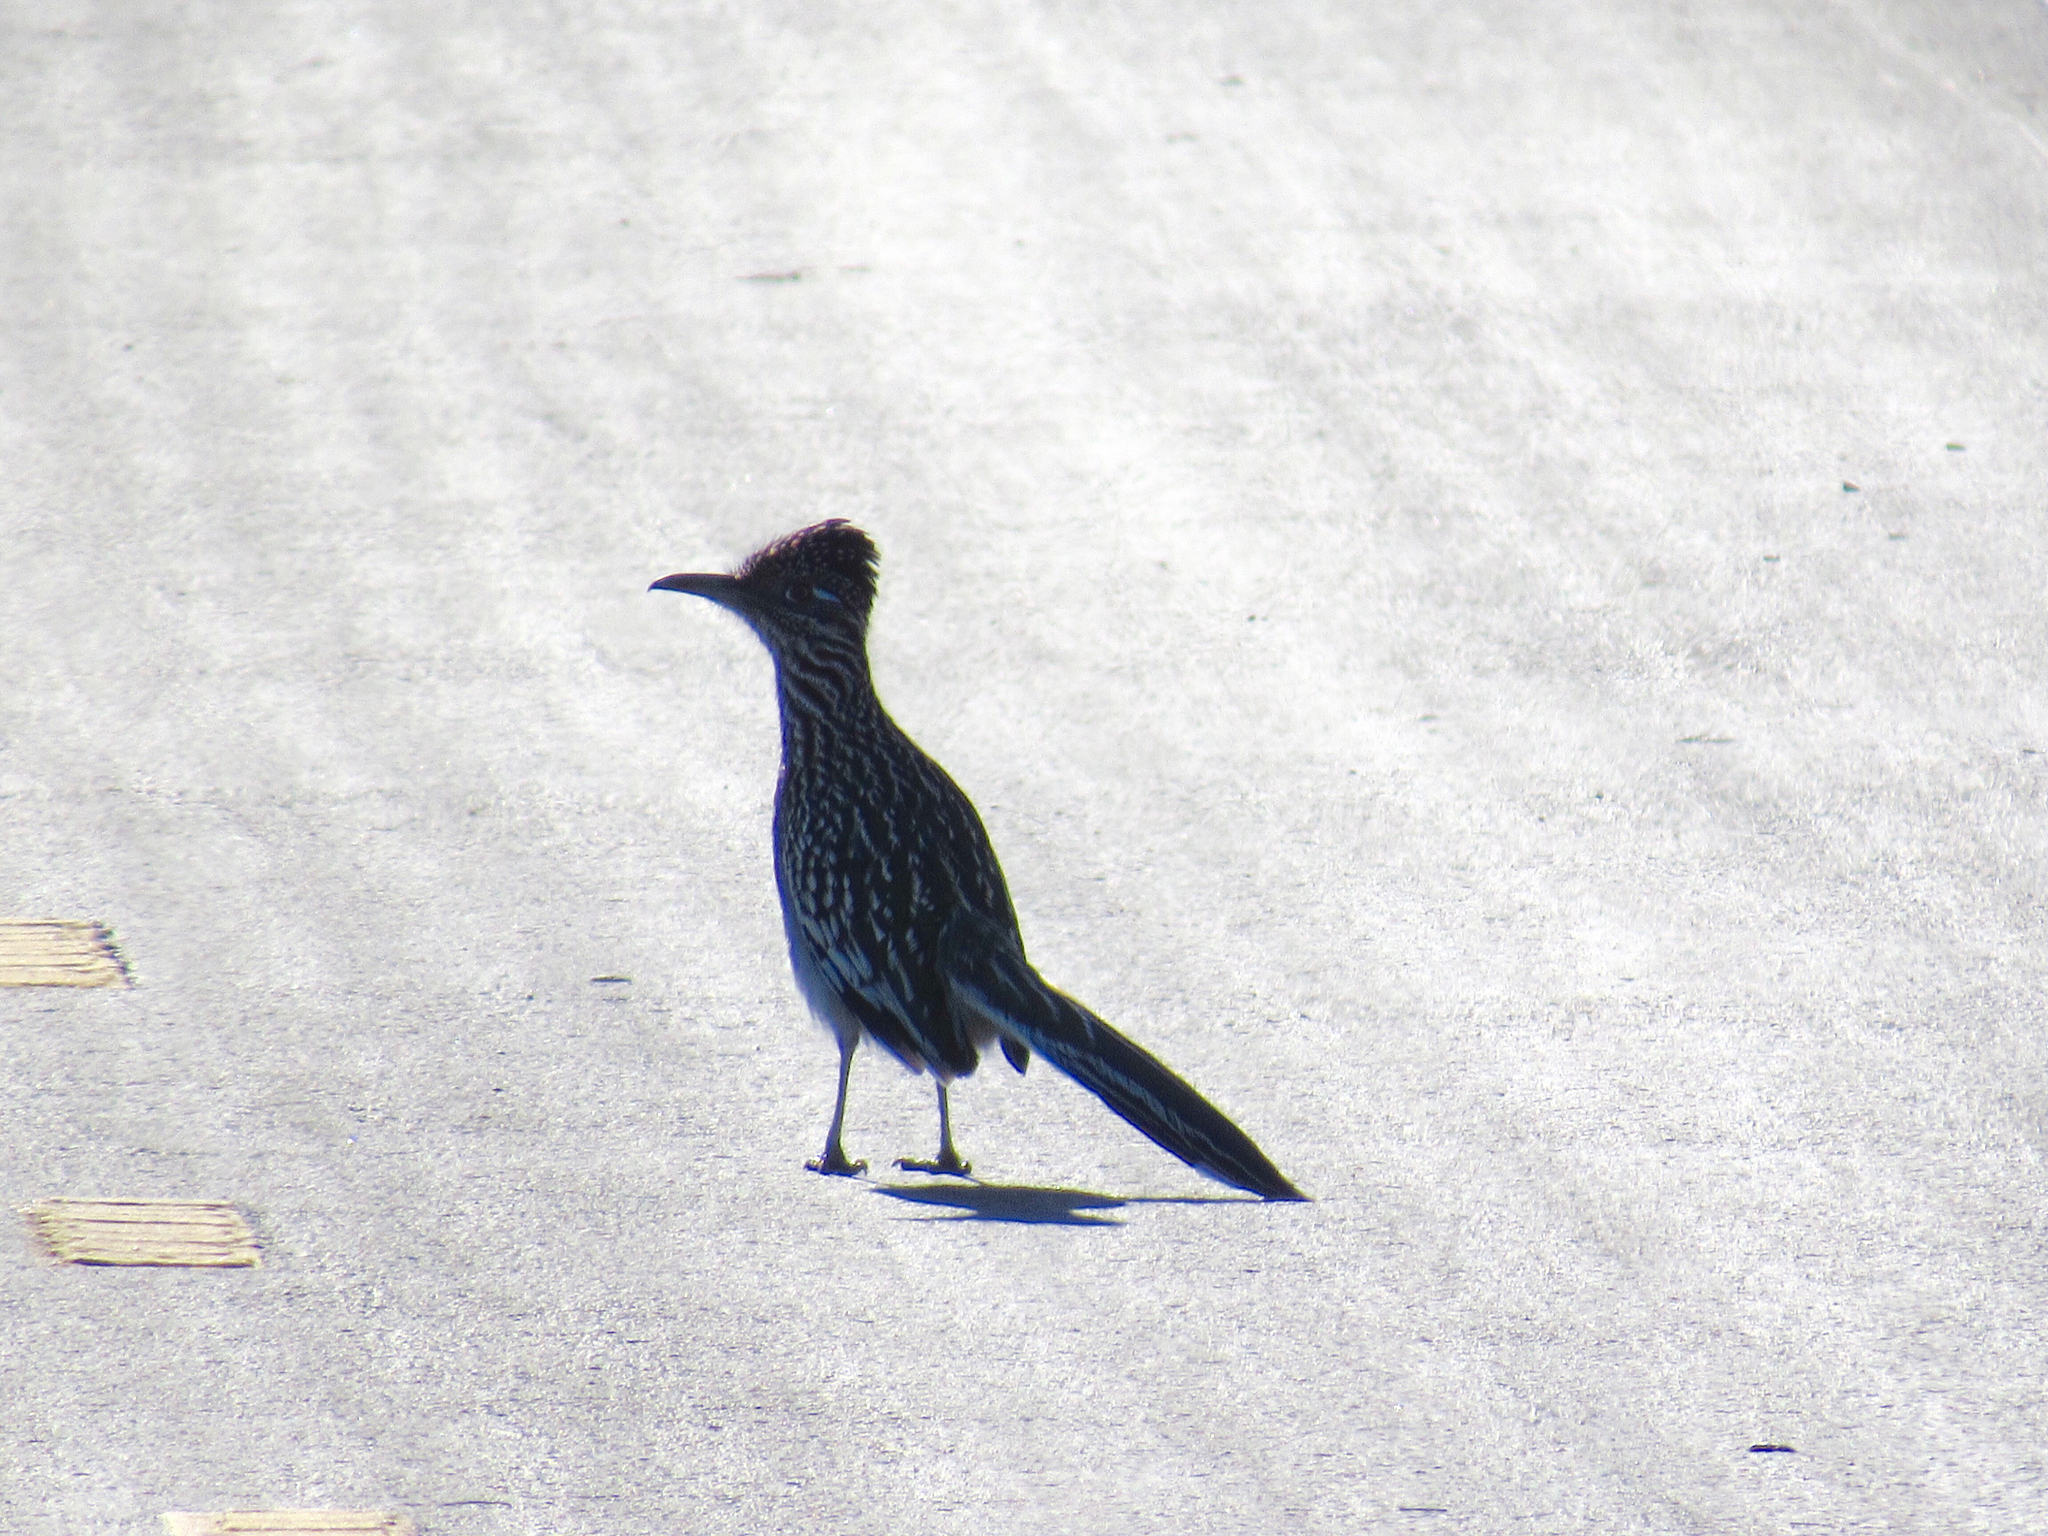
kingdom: Animalia
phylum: Chordata
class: Aves
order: Cuculiformes
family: Cuculidae
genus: Geococcyx
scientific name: Geococcyx californianus
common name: Greater roadrunner
